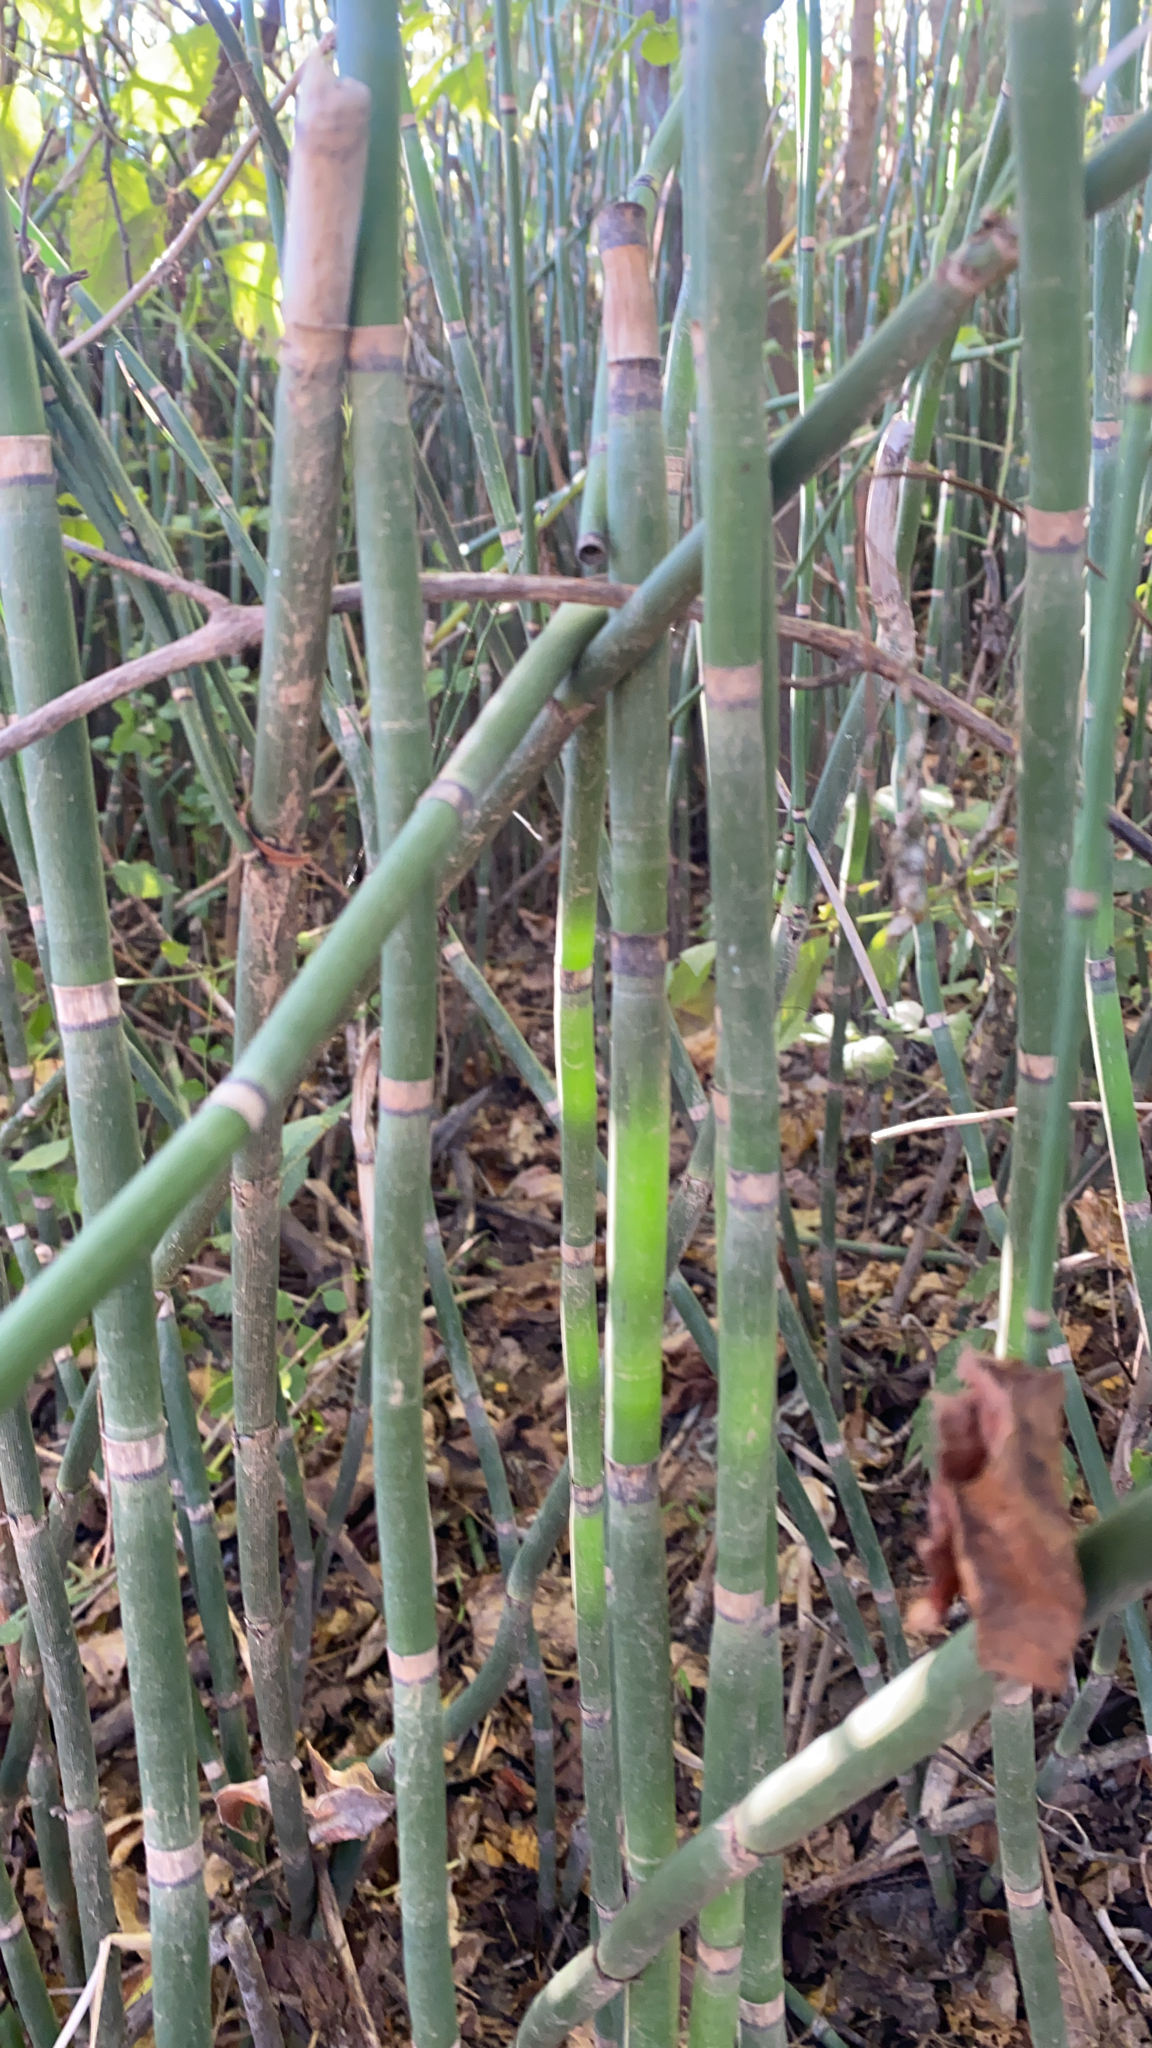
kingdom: Plantae
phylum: Tracheophyta
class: Polypodiopsida
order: Equisetales
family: Equisetaceae
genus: Equisetum
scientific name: Equisetum hyemale
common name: Rough horsetail
